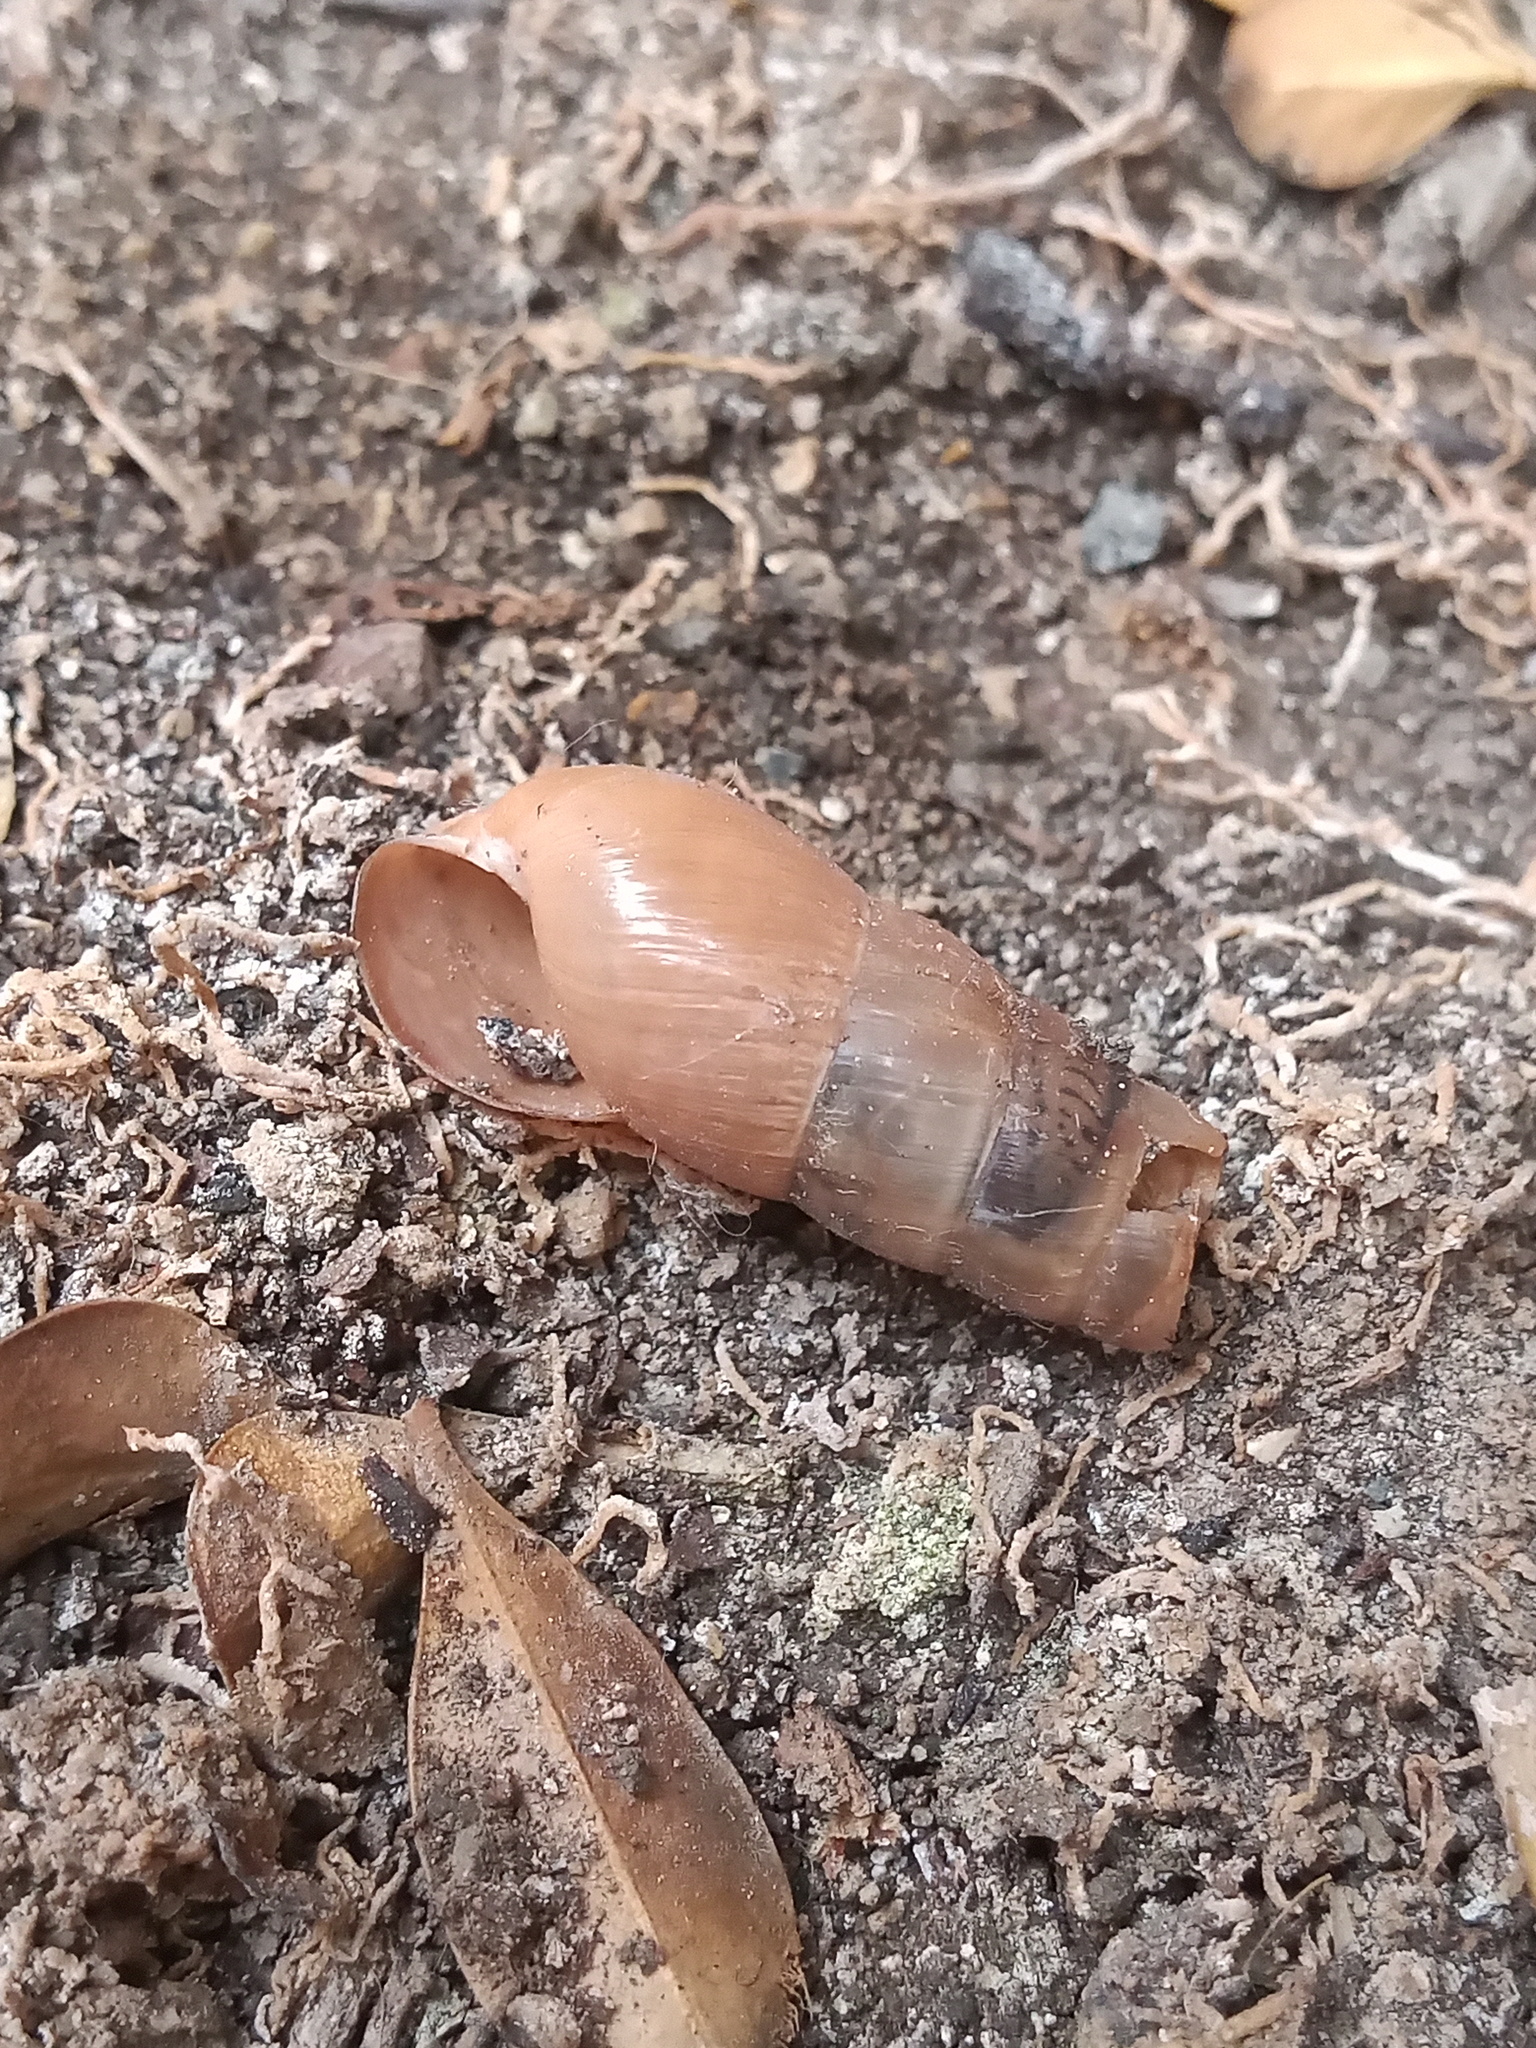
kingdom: Animalia
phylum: Mollusca
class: Gastropoda
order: Stylommatophora
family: Achatinidae
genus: Rumina
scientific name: Rumina decollata
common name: Decollate snail
